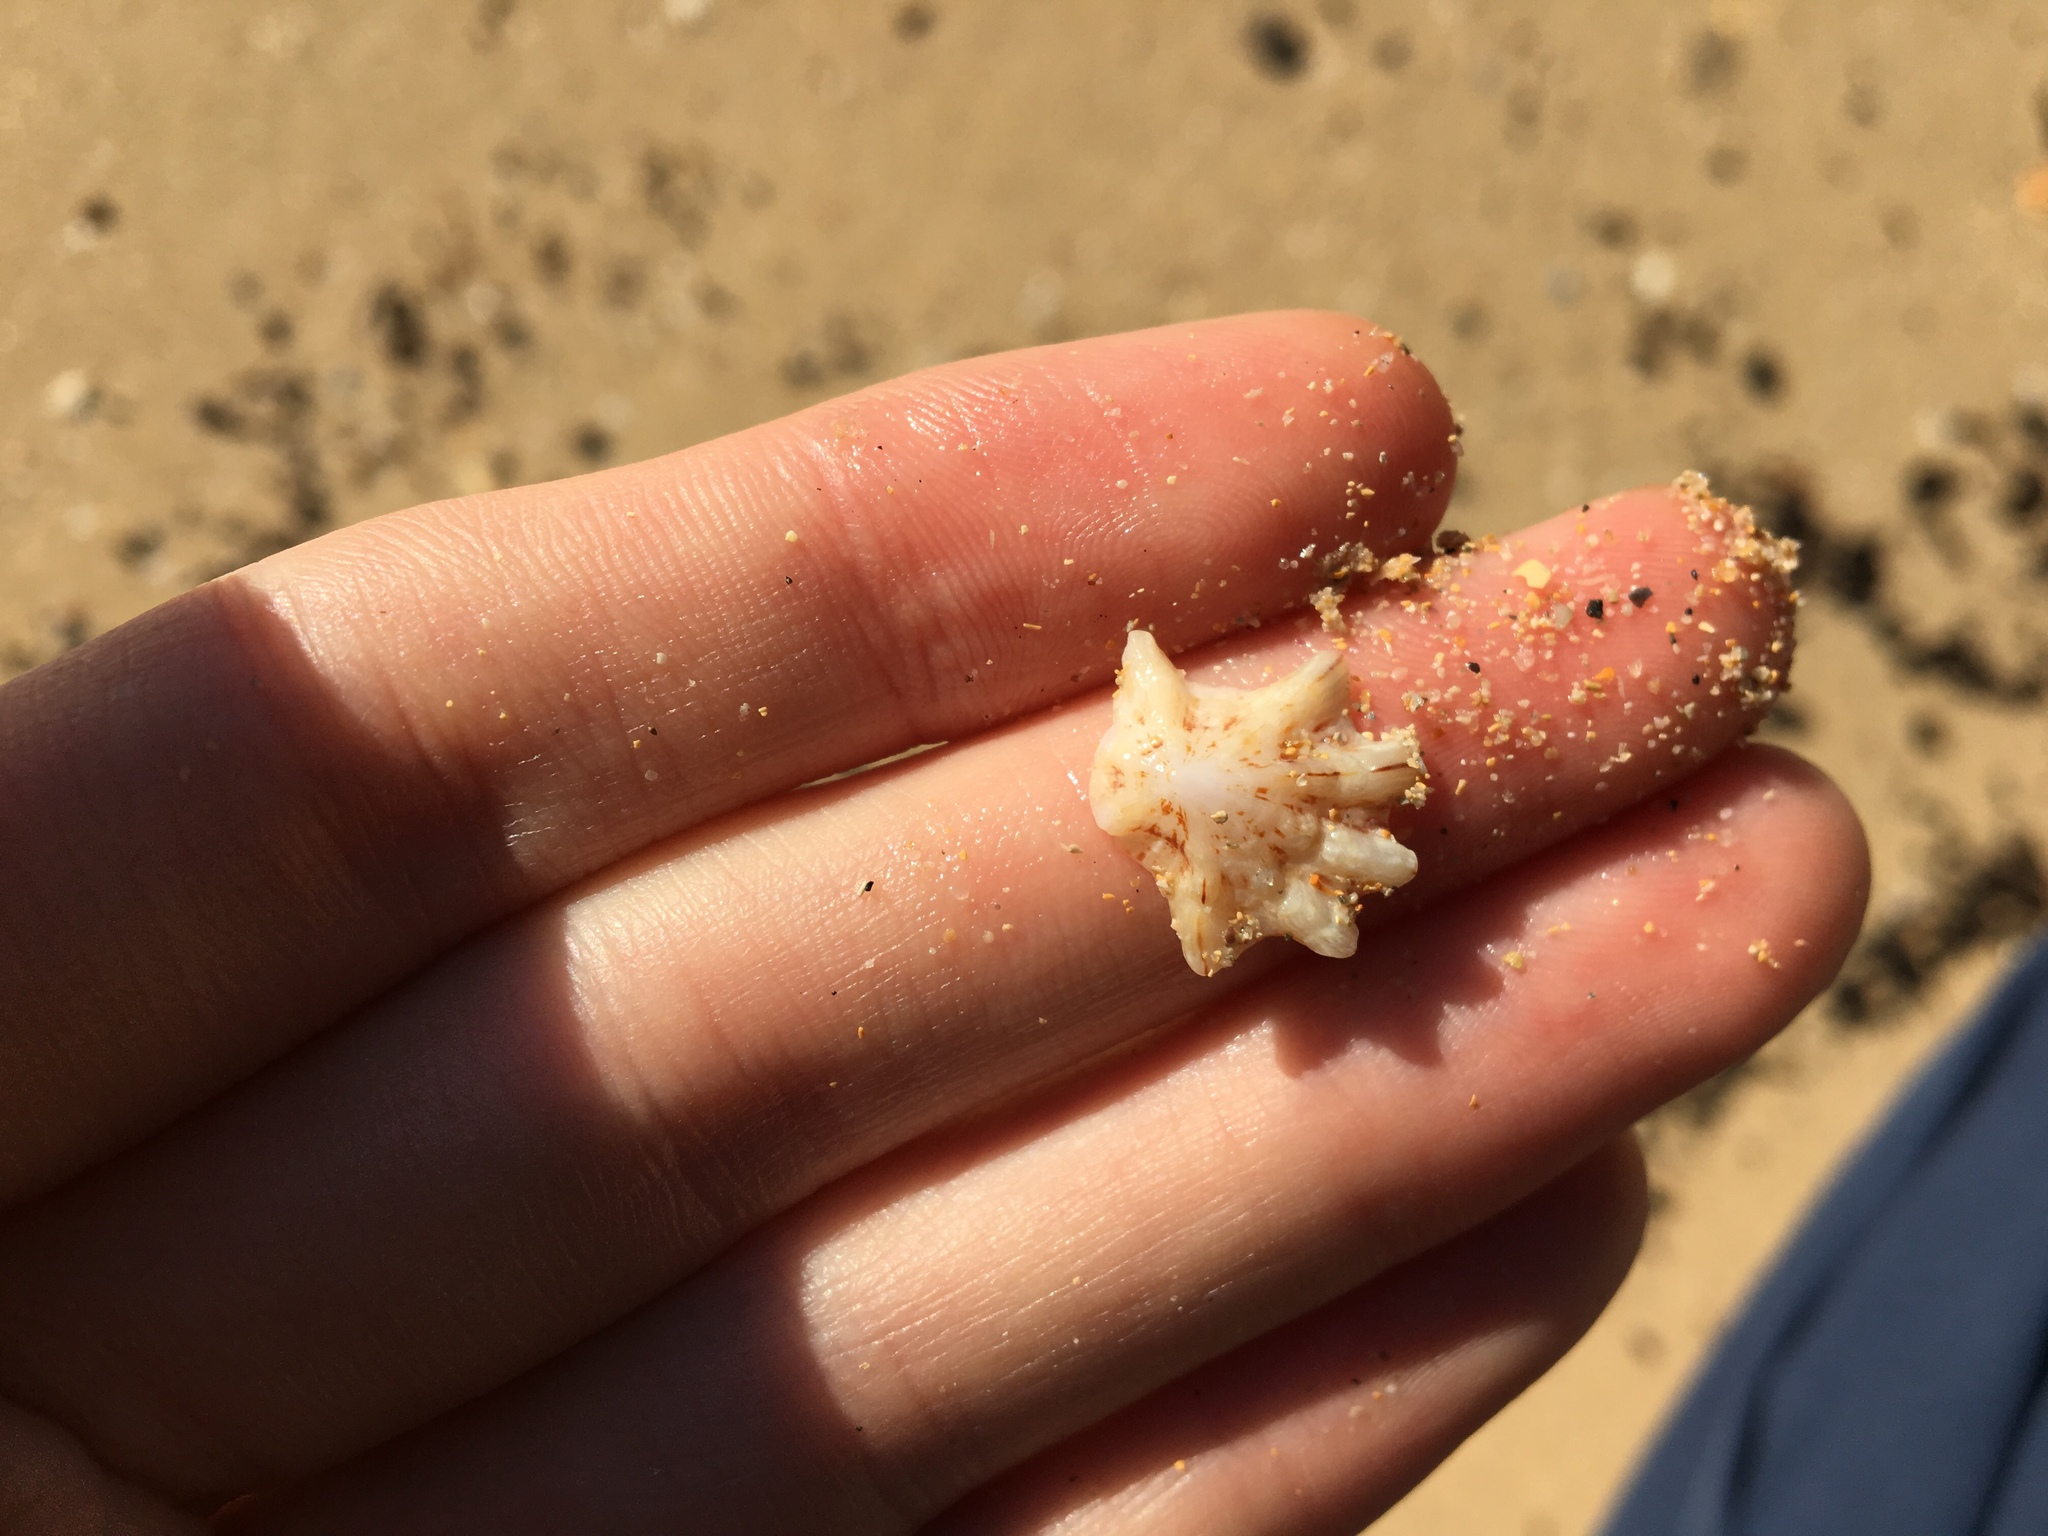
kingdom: Animalia
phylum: Mollusca
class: Gastropoda
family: Patellidae
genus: Scutellastra
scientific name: Scutellastra chapmani
